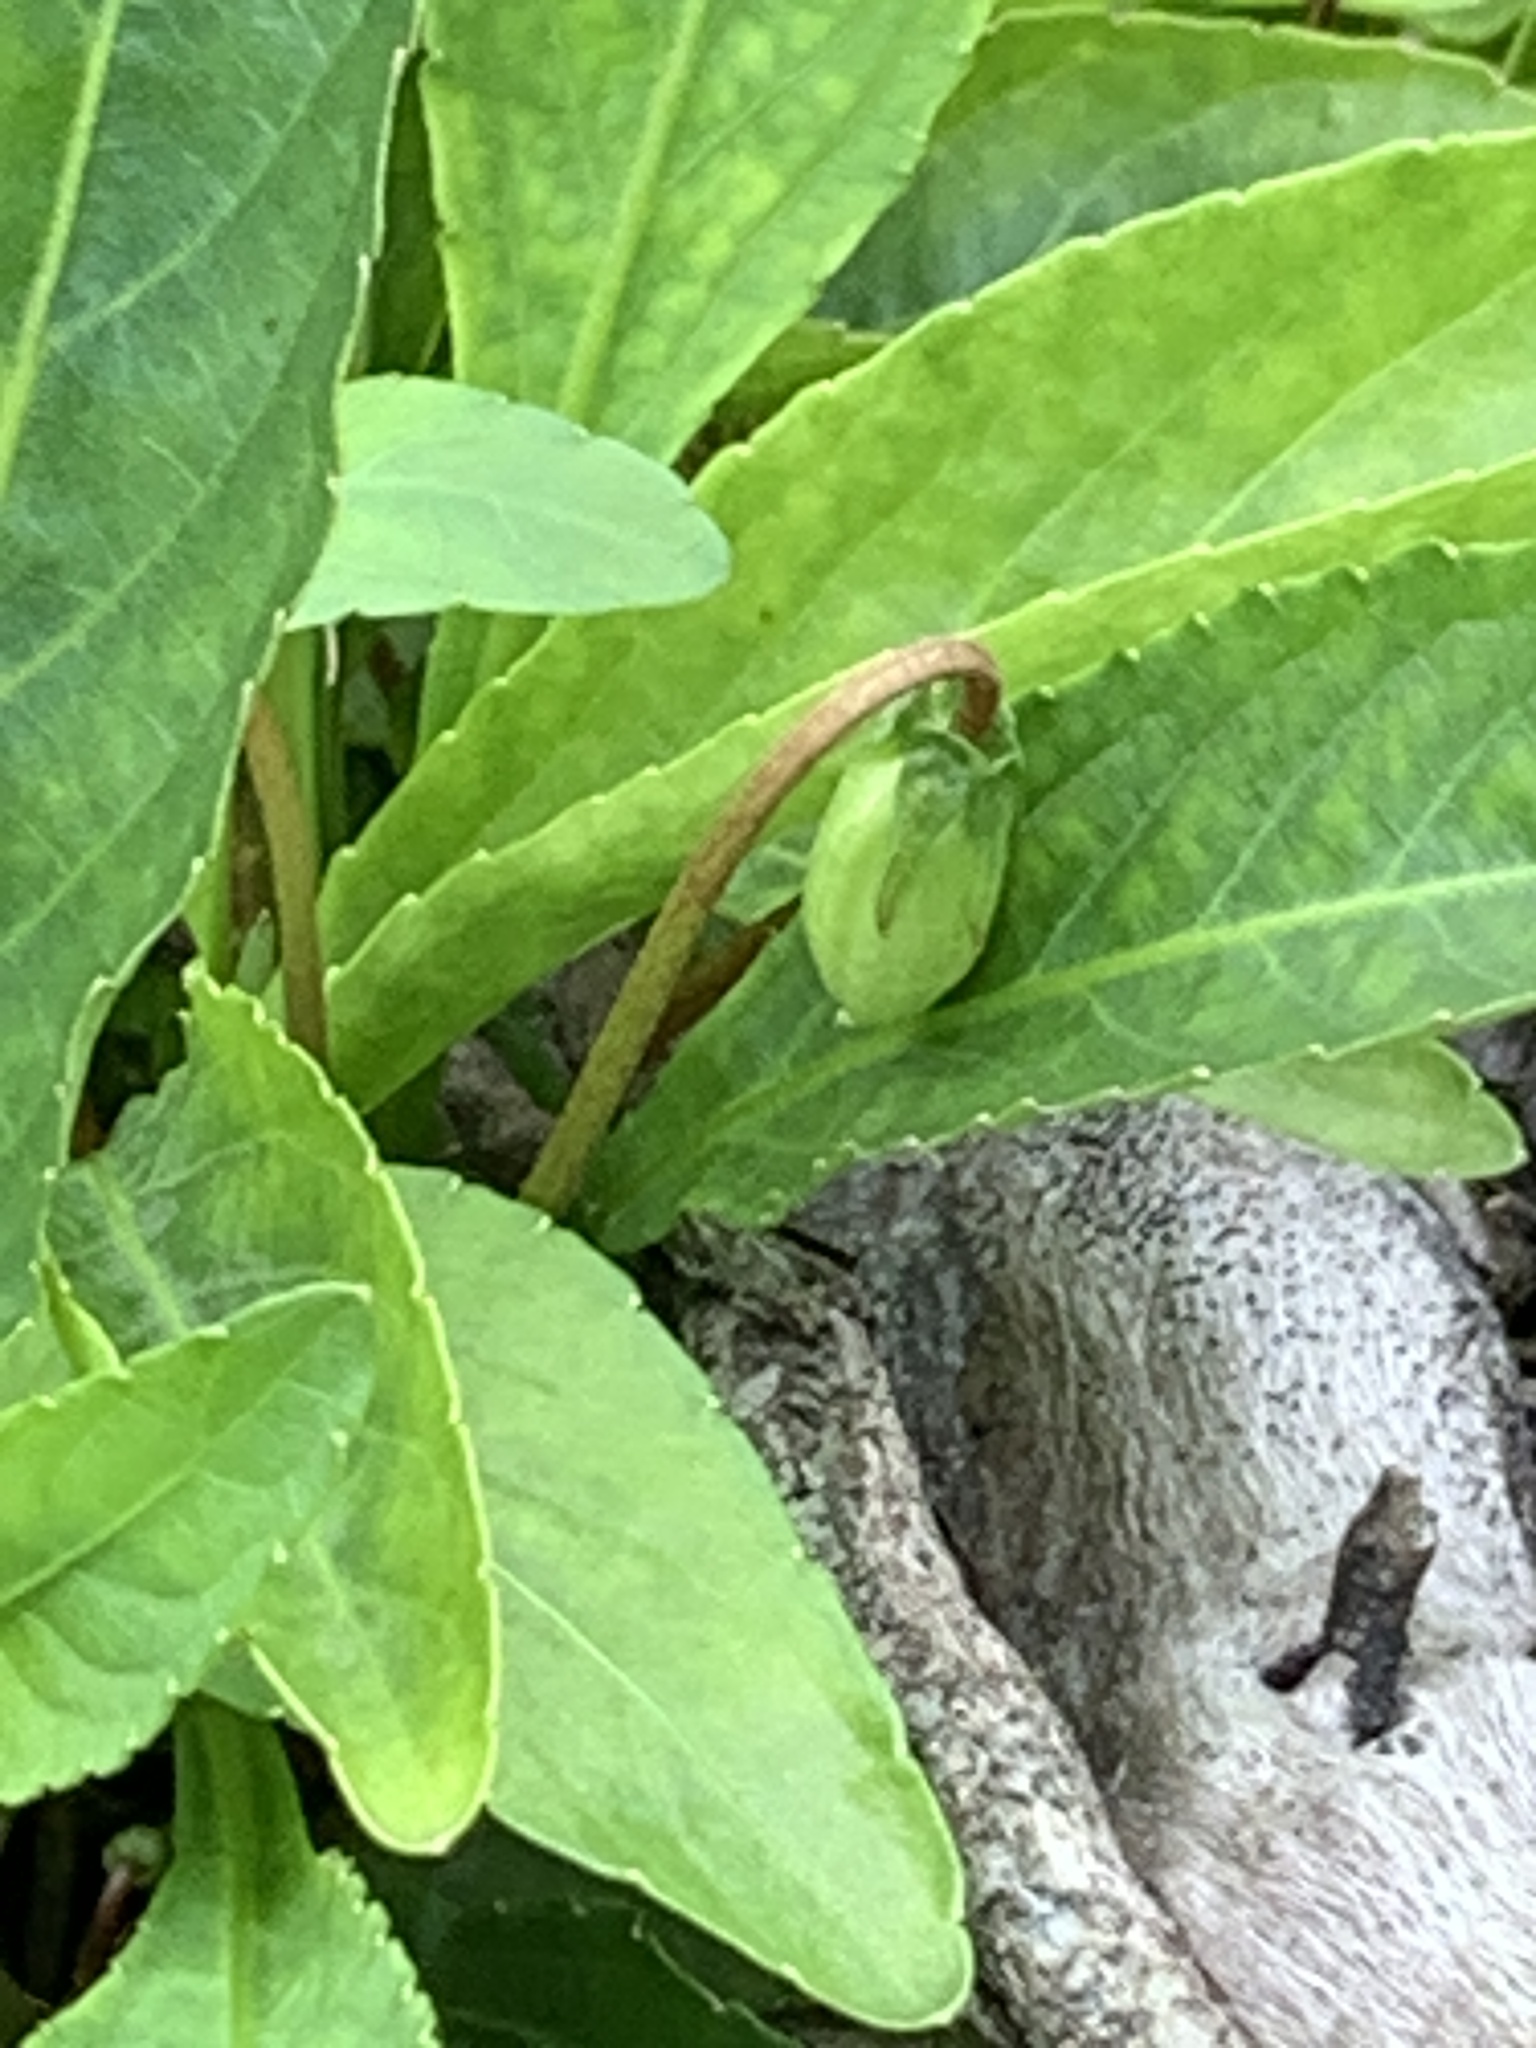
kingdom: Plantae
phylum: Tracheophyta
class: Magnoliopsida
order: Malpighiales
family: Violaceae
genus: Viola
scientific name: Viola lanceolata
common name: Bog white violet
